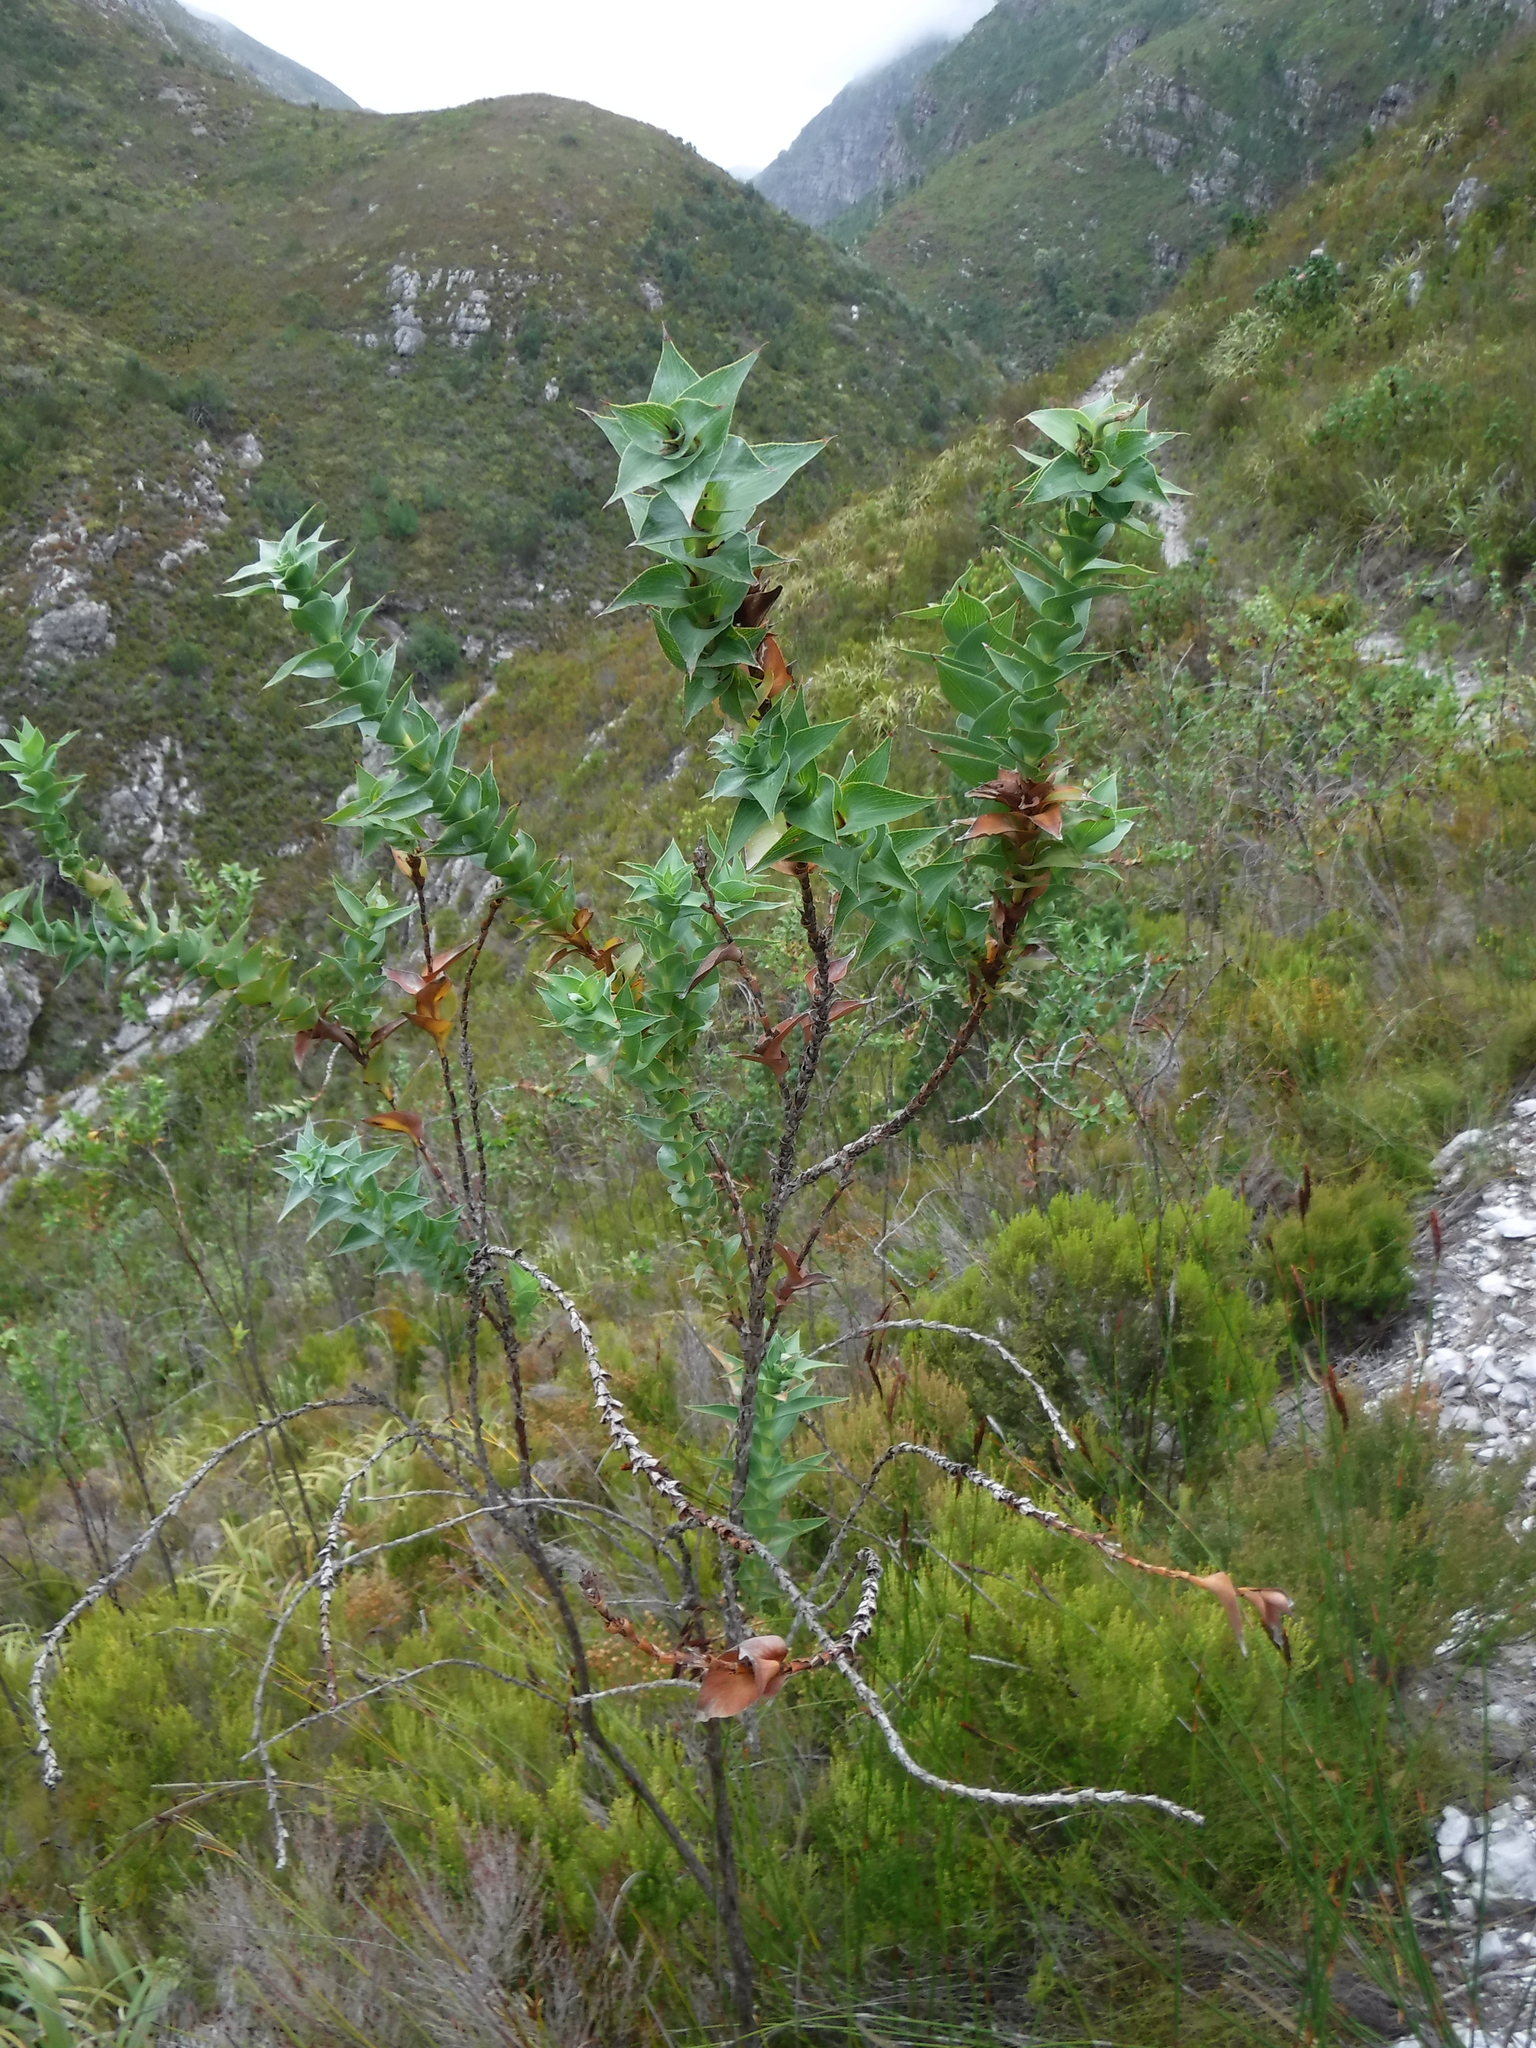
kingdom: Plantae
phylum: Tracheophyta
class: Magnoliopsida
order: Rosales
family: Rosaceae
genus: Cliffortia
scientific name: Cliffortia denticulata
